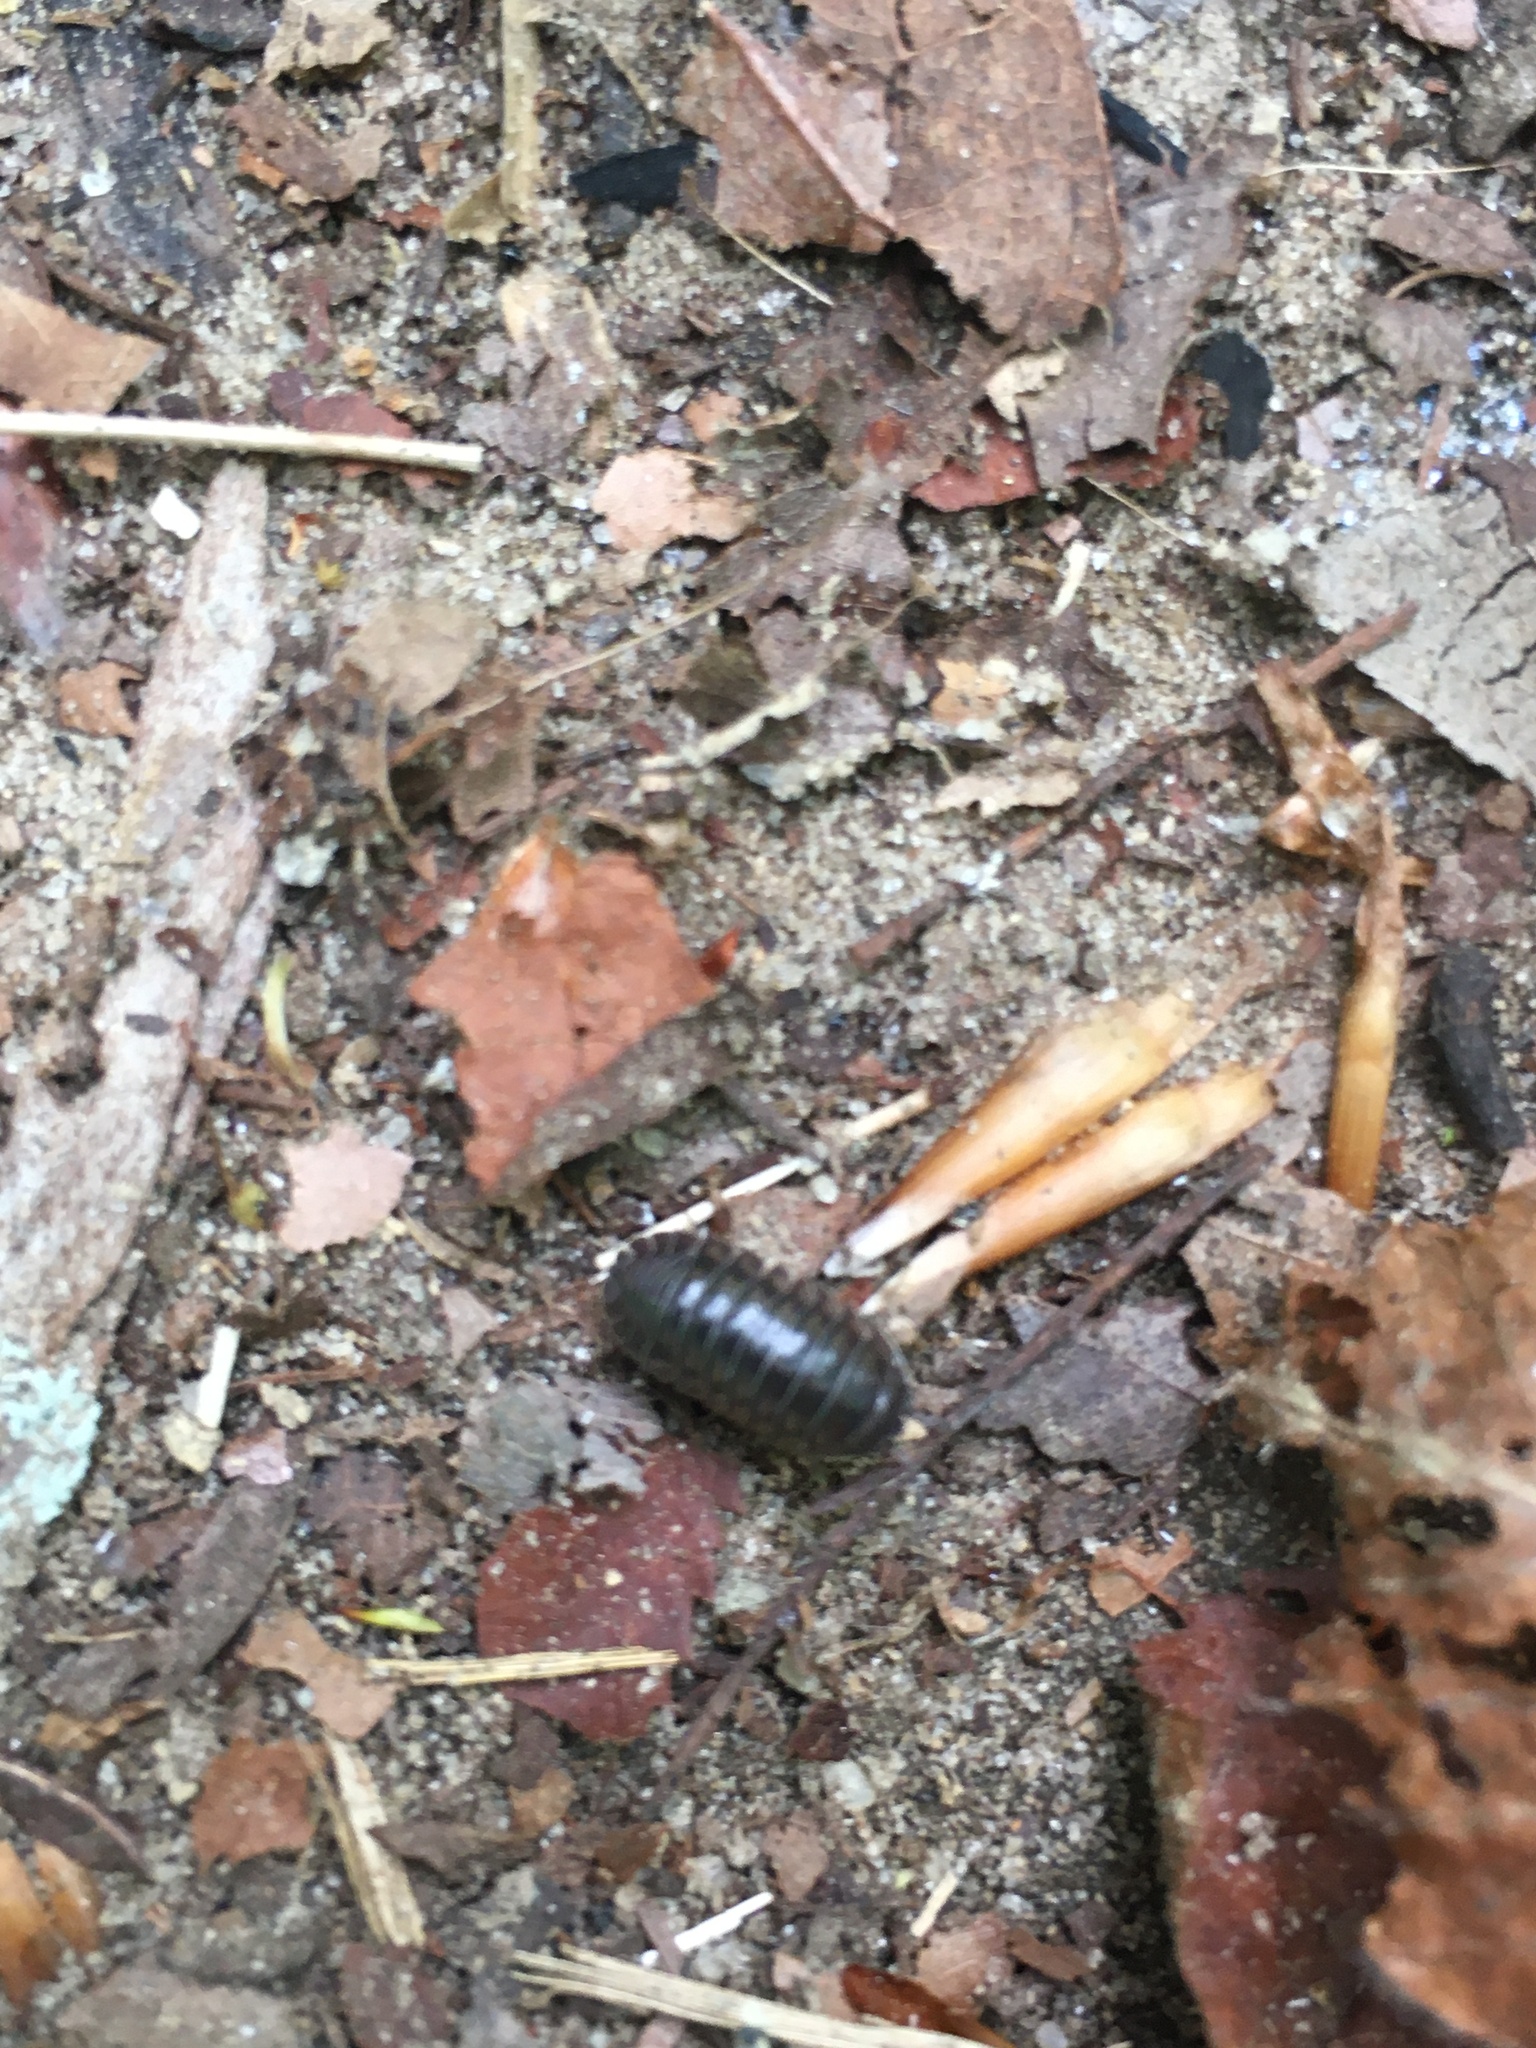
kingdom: Animalia
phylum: Arthropoda
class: Malacostraca
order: Isopoda
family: Armadillidiidae
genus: Armadillidium
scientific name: Armadillidium nasatum
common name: Isopod
